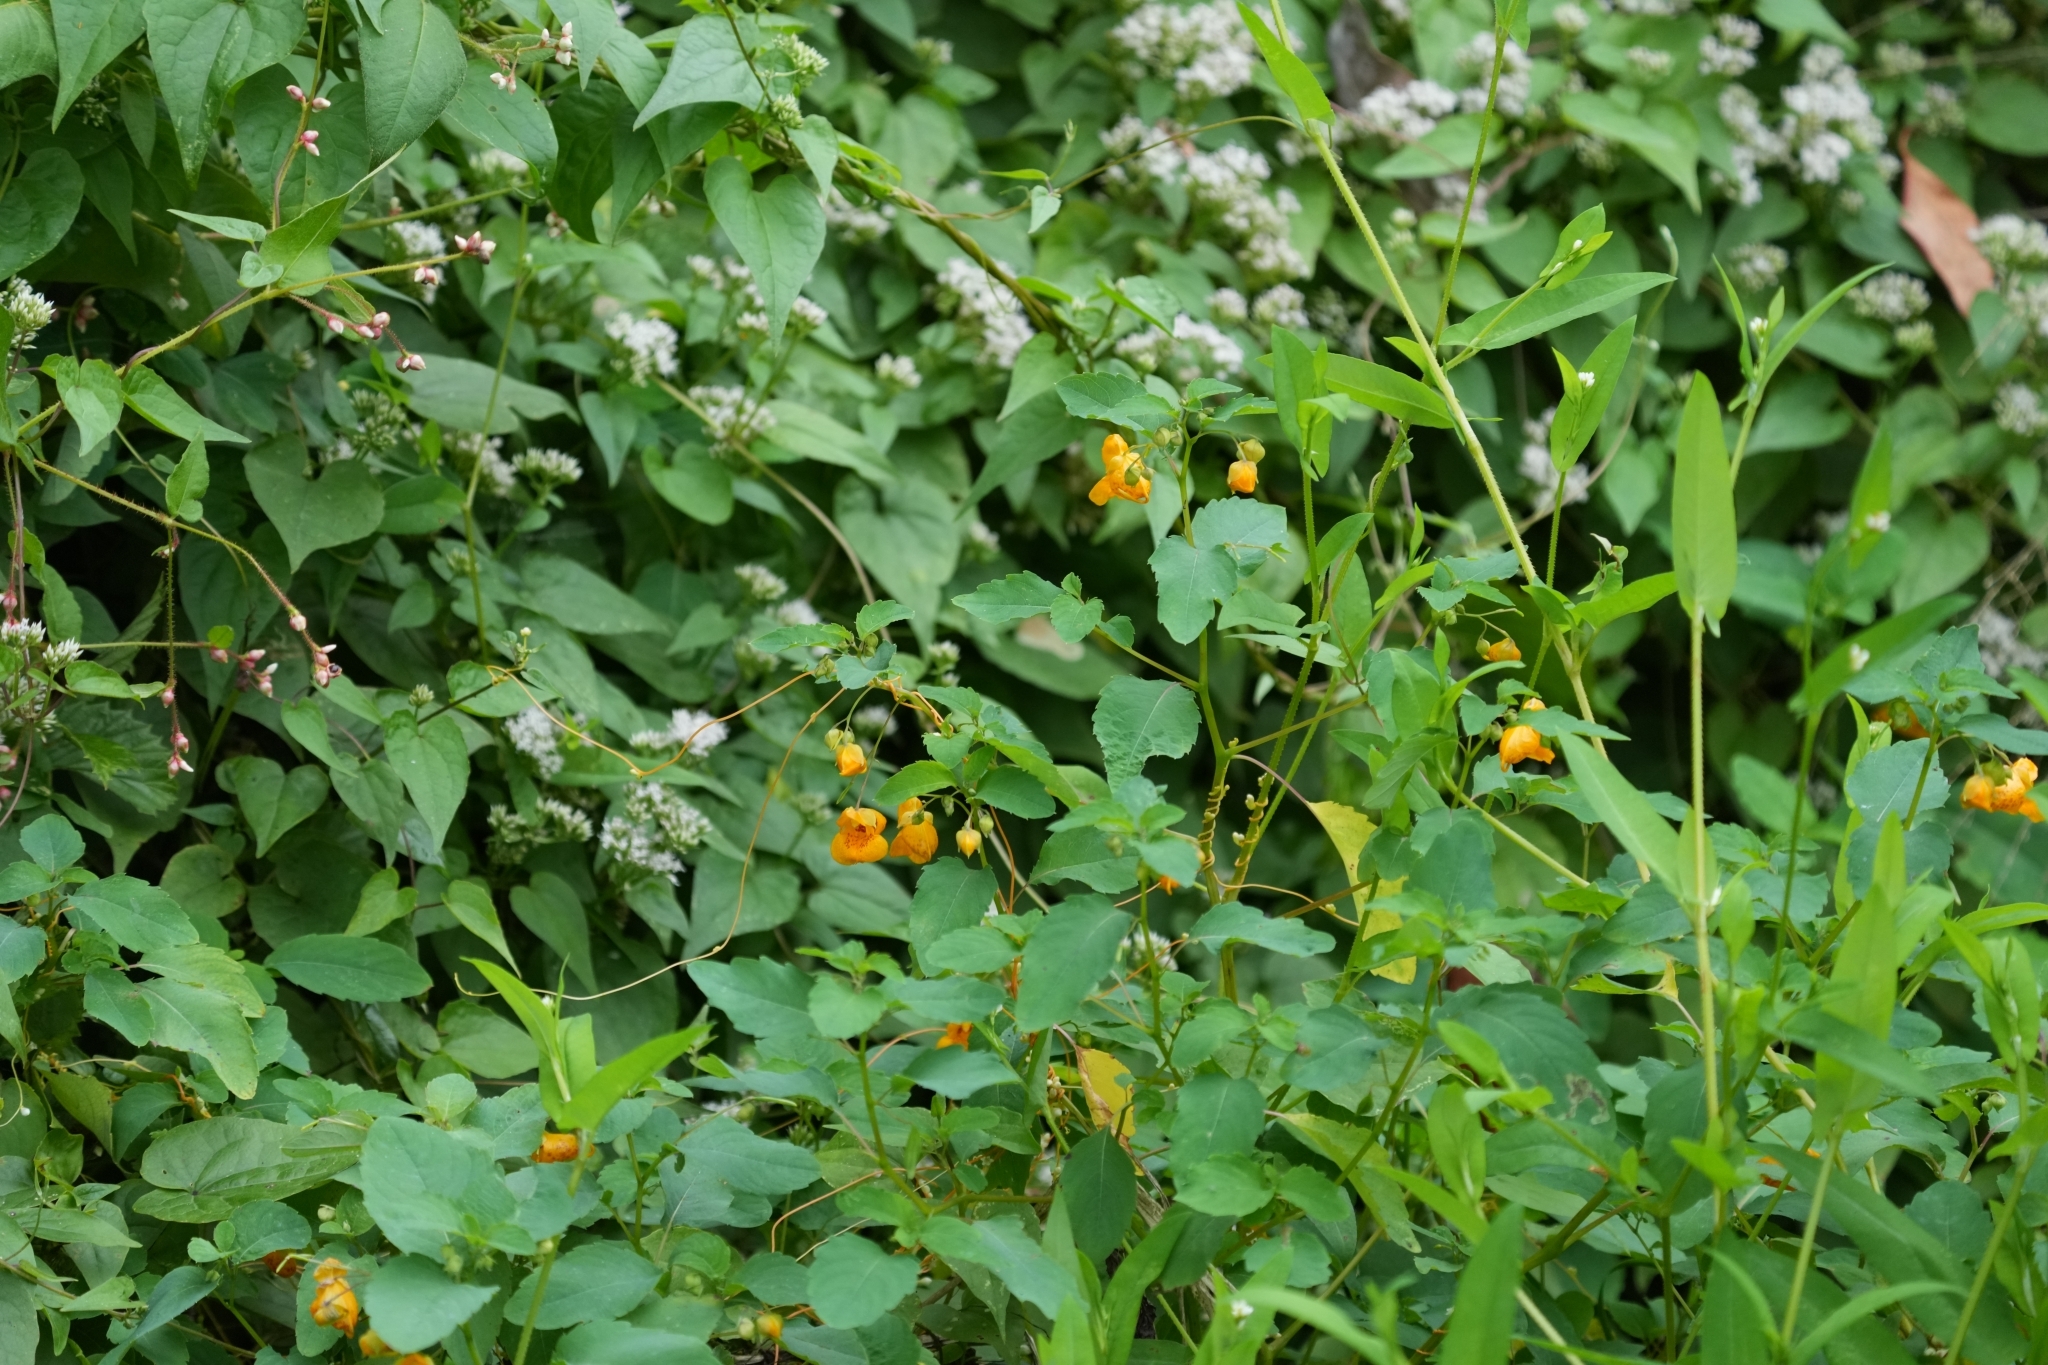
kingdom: Plantae
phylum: Tracheophyta
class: Magnoliopsida
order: Ericales
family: Balsaminaceae
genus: Impatiens
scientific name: Impatiens capensis
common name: Orange balsam
